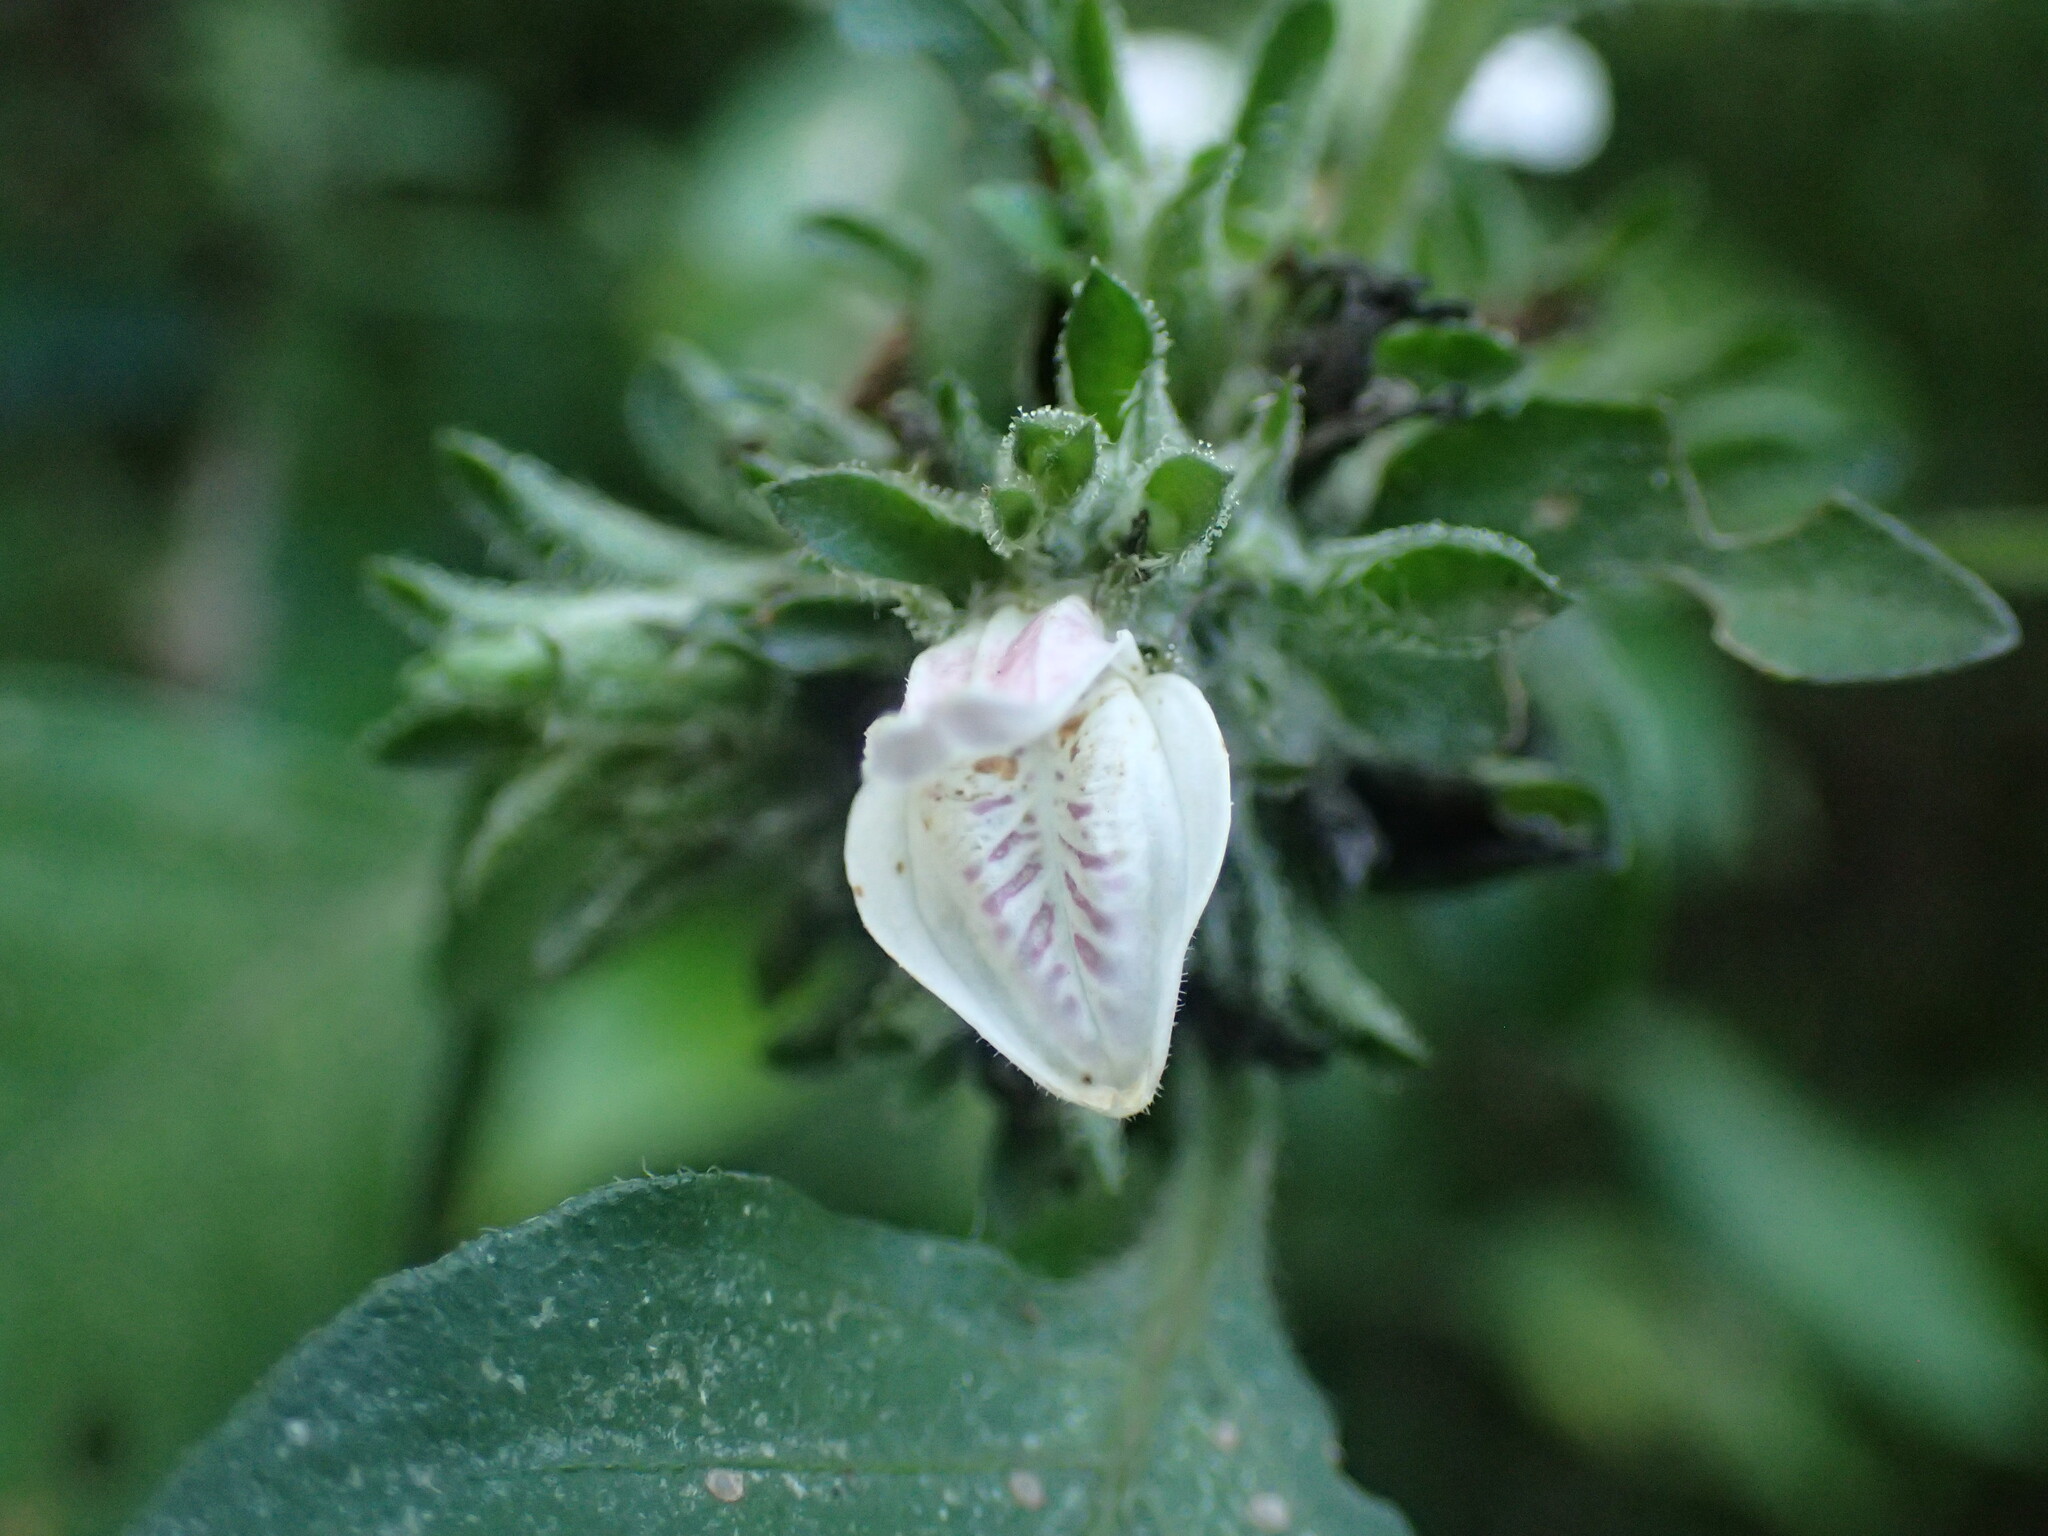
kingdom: Plantae
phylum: Tracheophyta
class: Magnoliopsida
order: Lamiales
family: Acanthaceae
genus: Isoglossa
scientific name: Isoglossa ciliata
